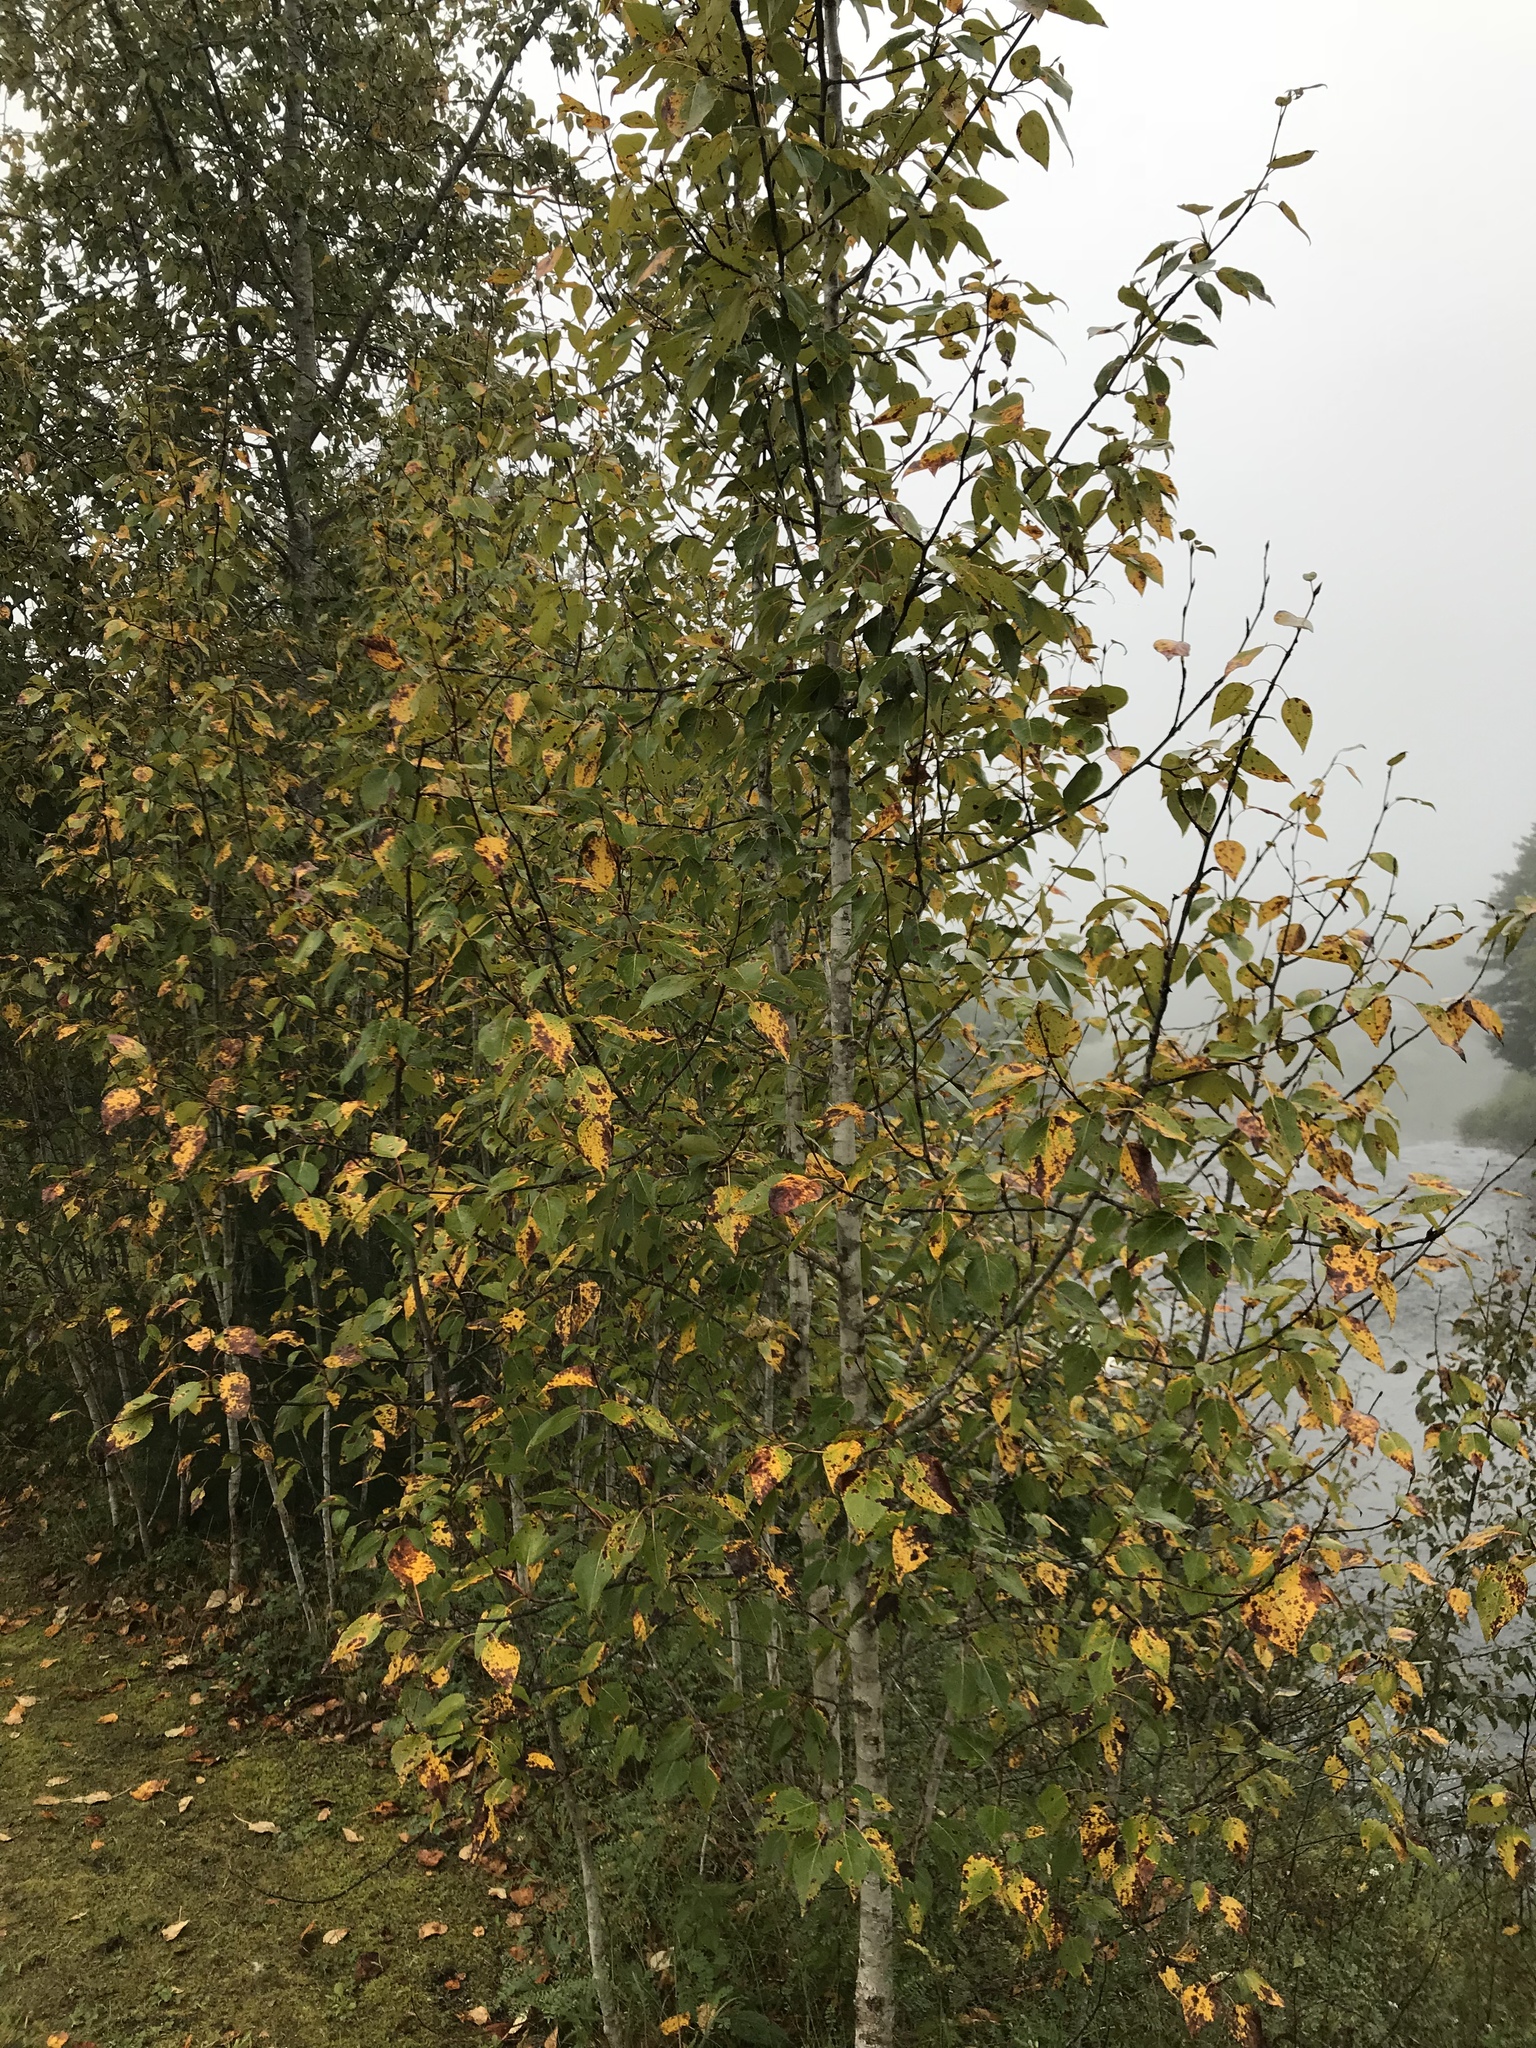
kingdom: Plantae
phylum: Tracheophyta
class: Magnoliopsida
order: Malpighiales
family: Salicaceae
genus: Populus
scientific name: Populus balsamifera
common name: Balsam poplar
